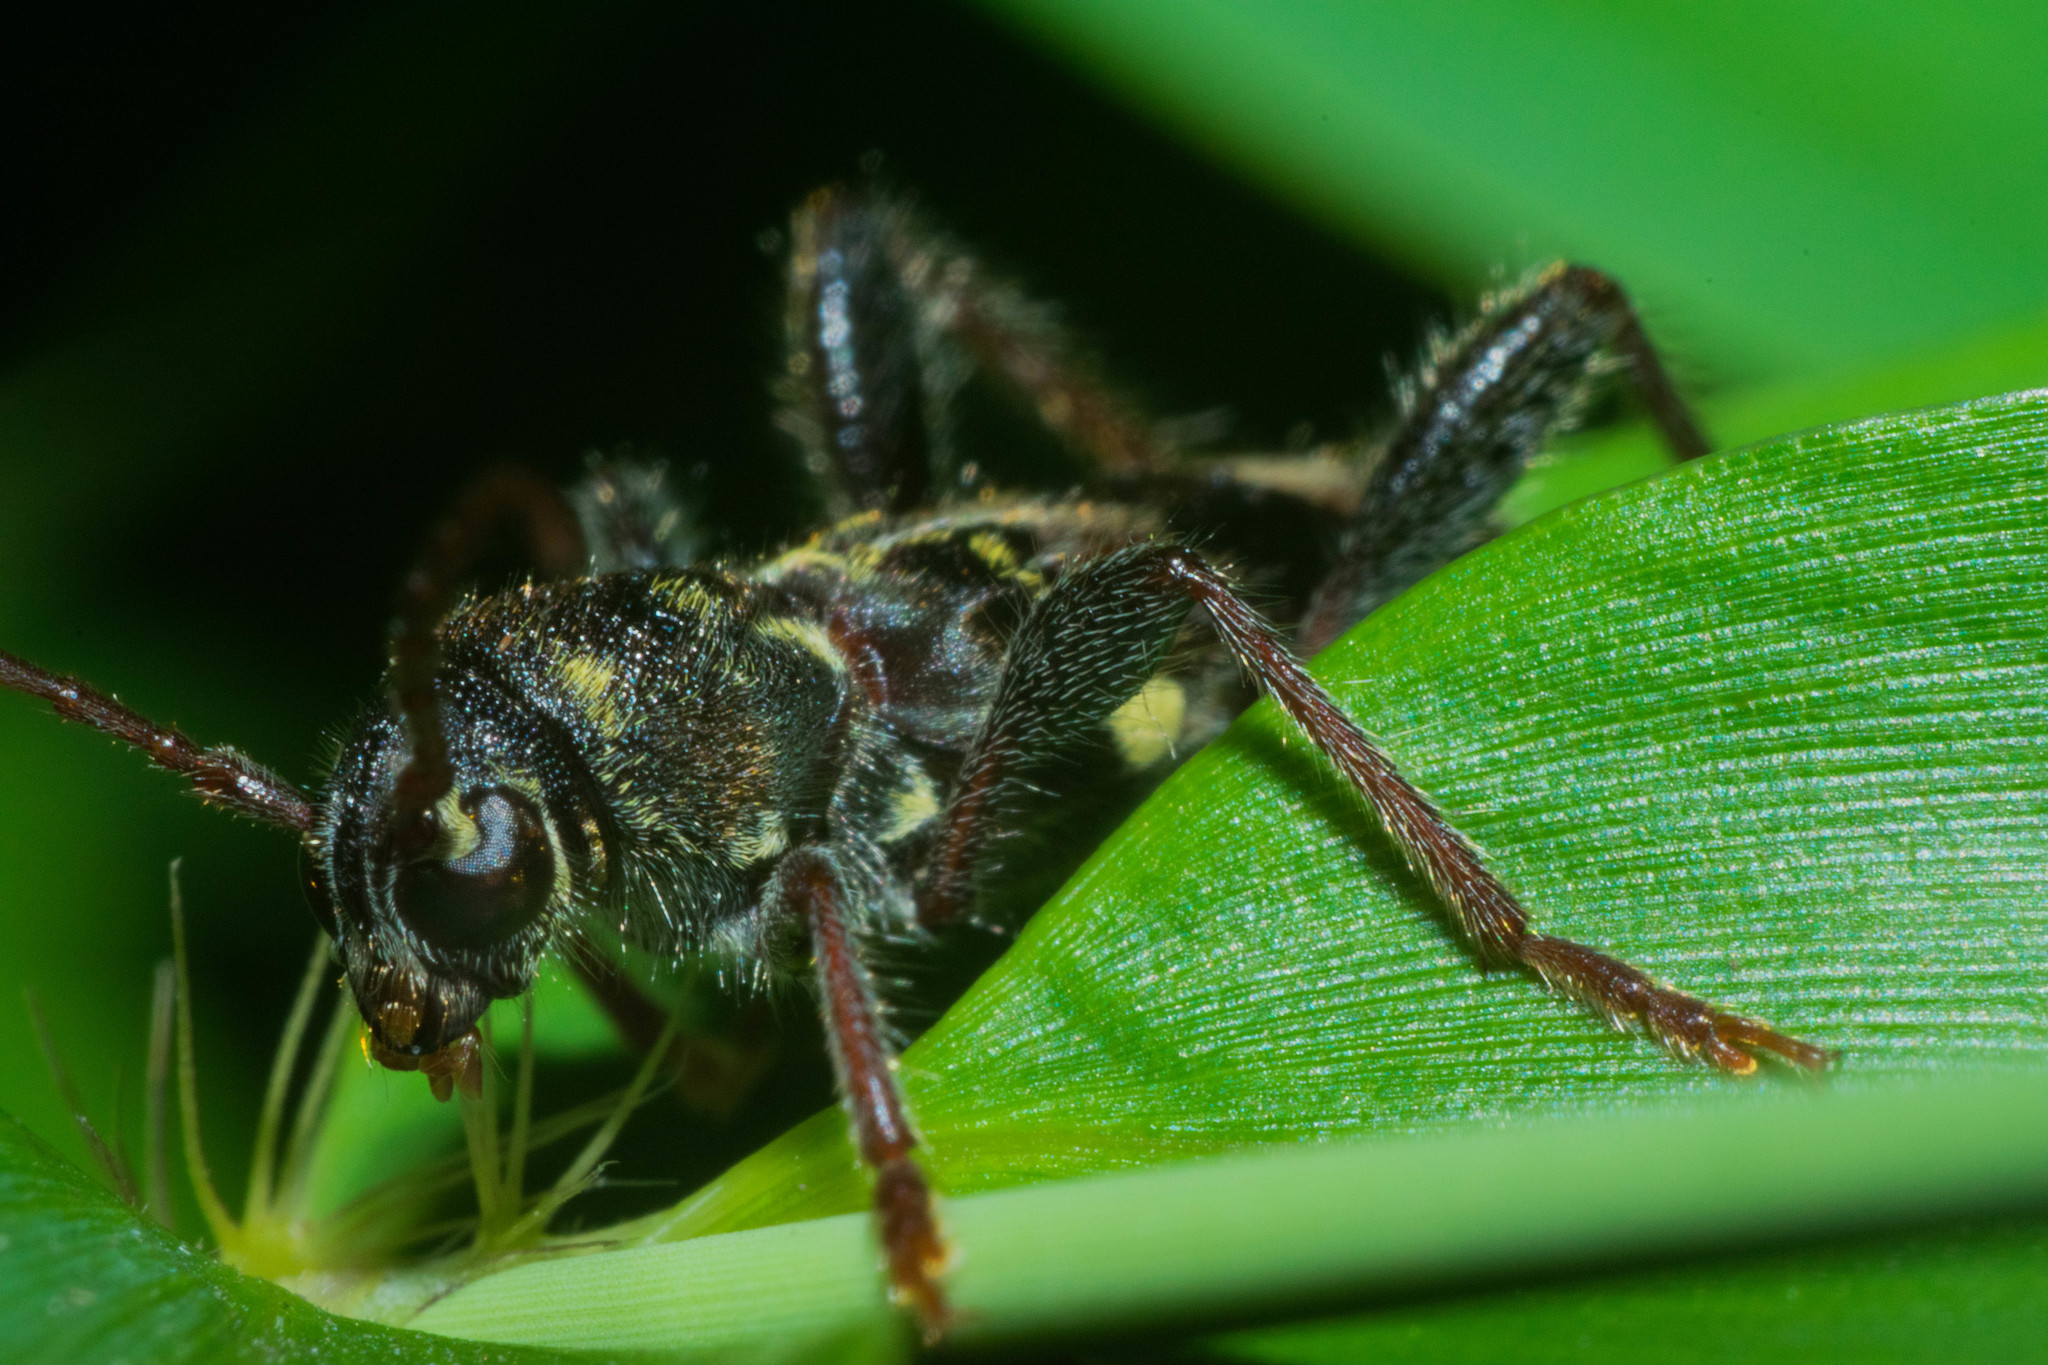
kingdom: Animalia
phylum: Arthropoda
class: Insecta
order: Coleoptera
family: Cerambycidae
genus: Xylotrechus
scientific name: Xylotrechus colonus
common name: Long-horned beetle
